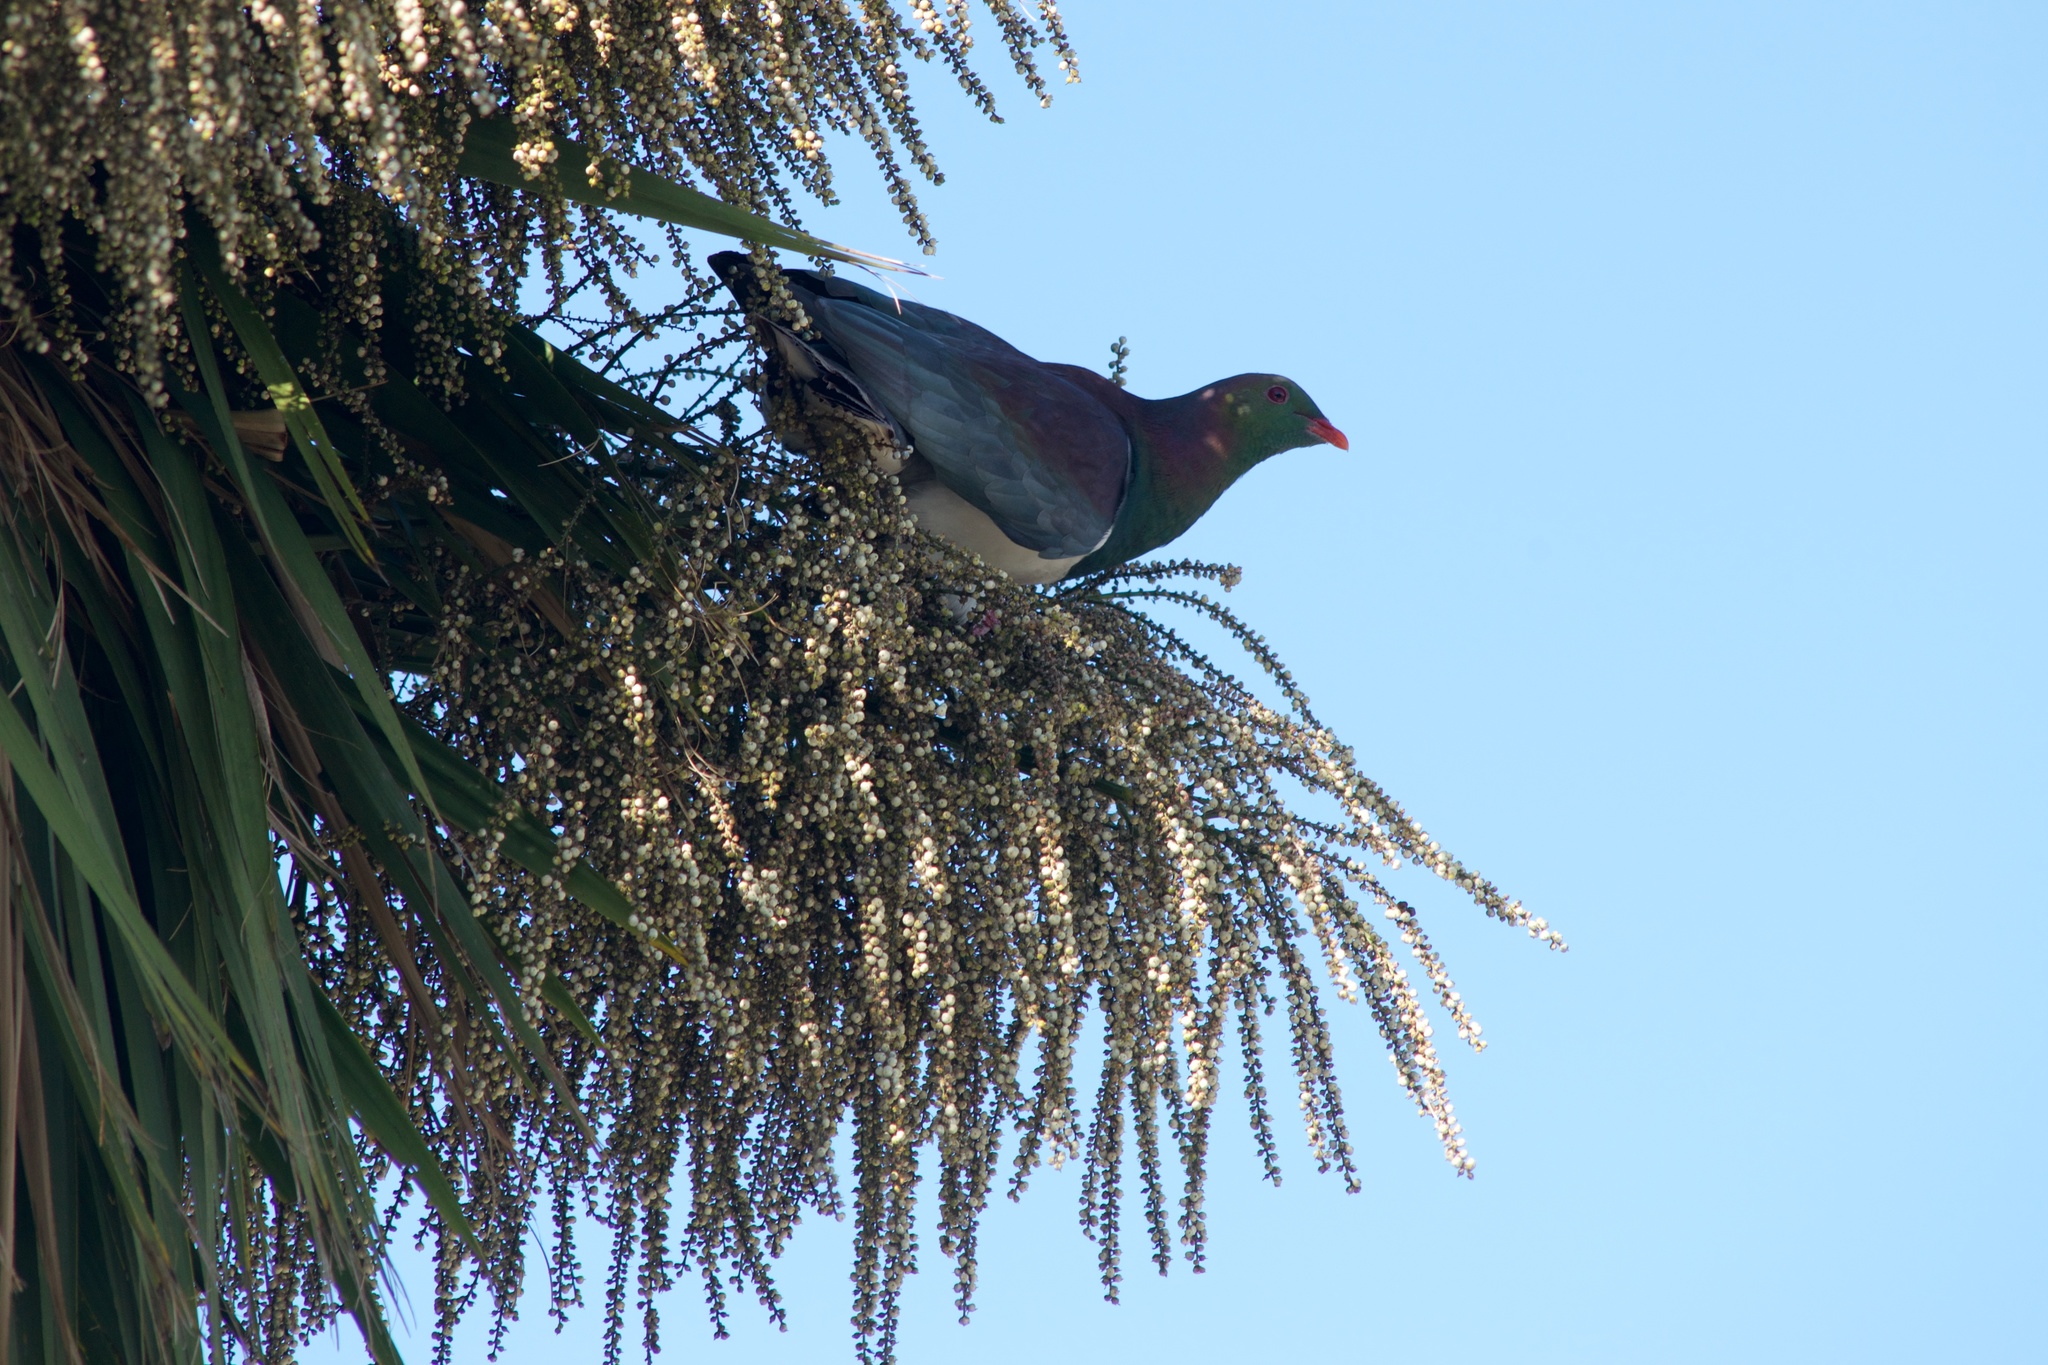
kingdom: Animalia
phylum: Chordata
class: Aves
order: Columbiformes
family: Columbidae
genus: Hemiphaga
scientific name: Hemiphaga novaeseelandiae
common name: New zealand pigeon
